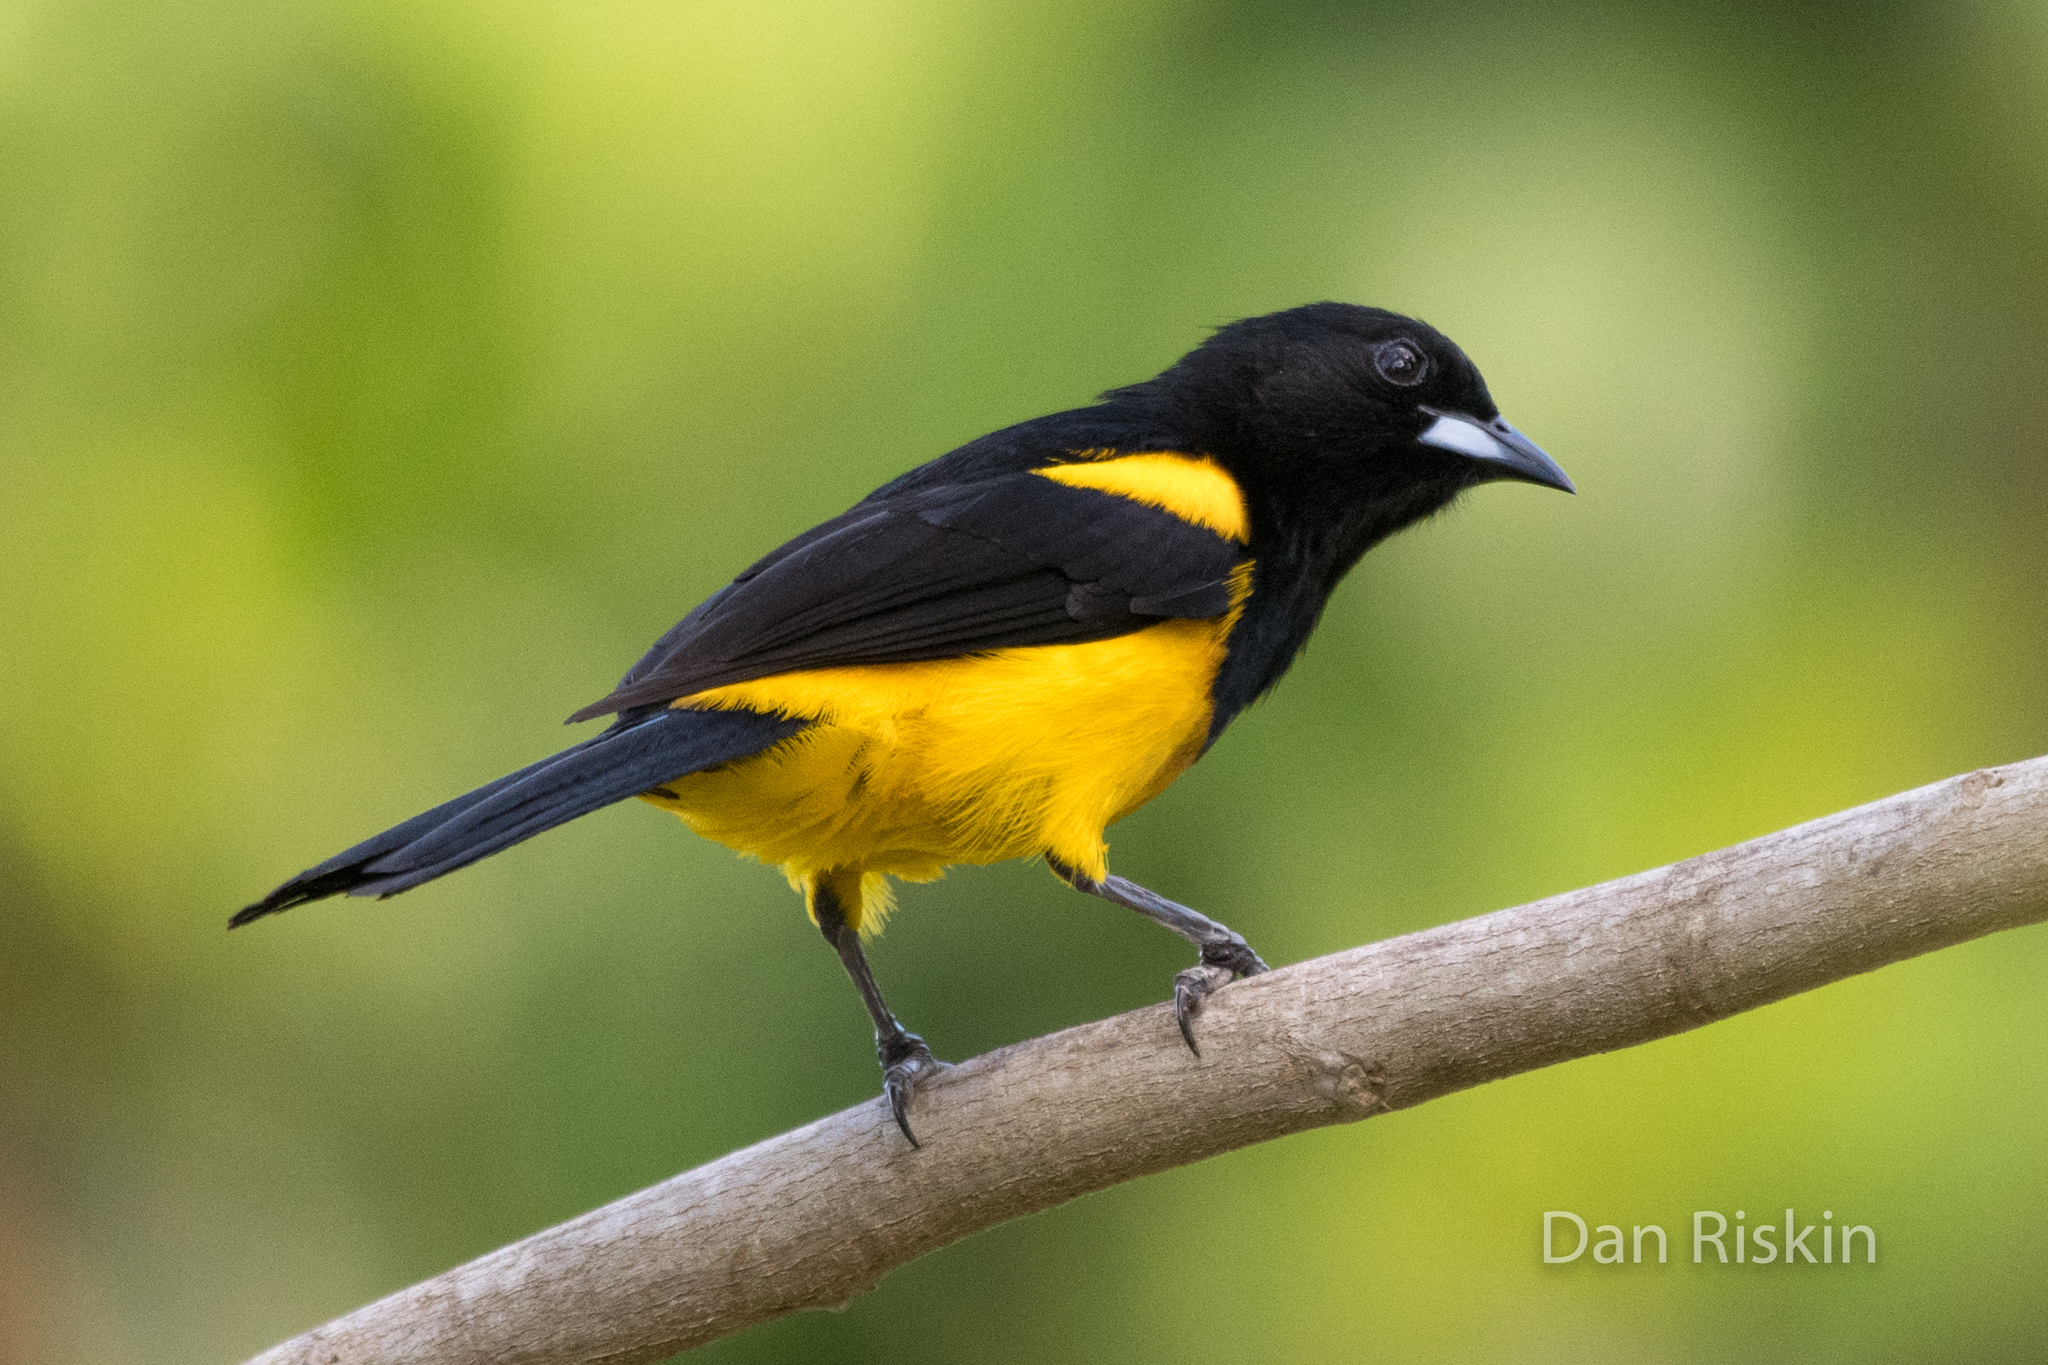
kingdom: Animalia
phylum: Chordata
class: Aves
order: Passeriformes
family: Icteridae
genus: Icterus
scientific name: Icterus prosthemelas
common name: Black-cowled oriole
